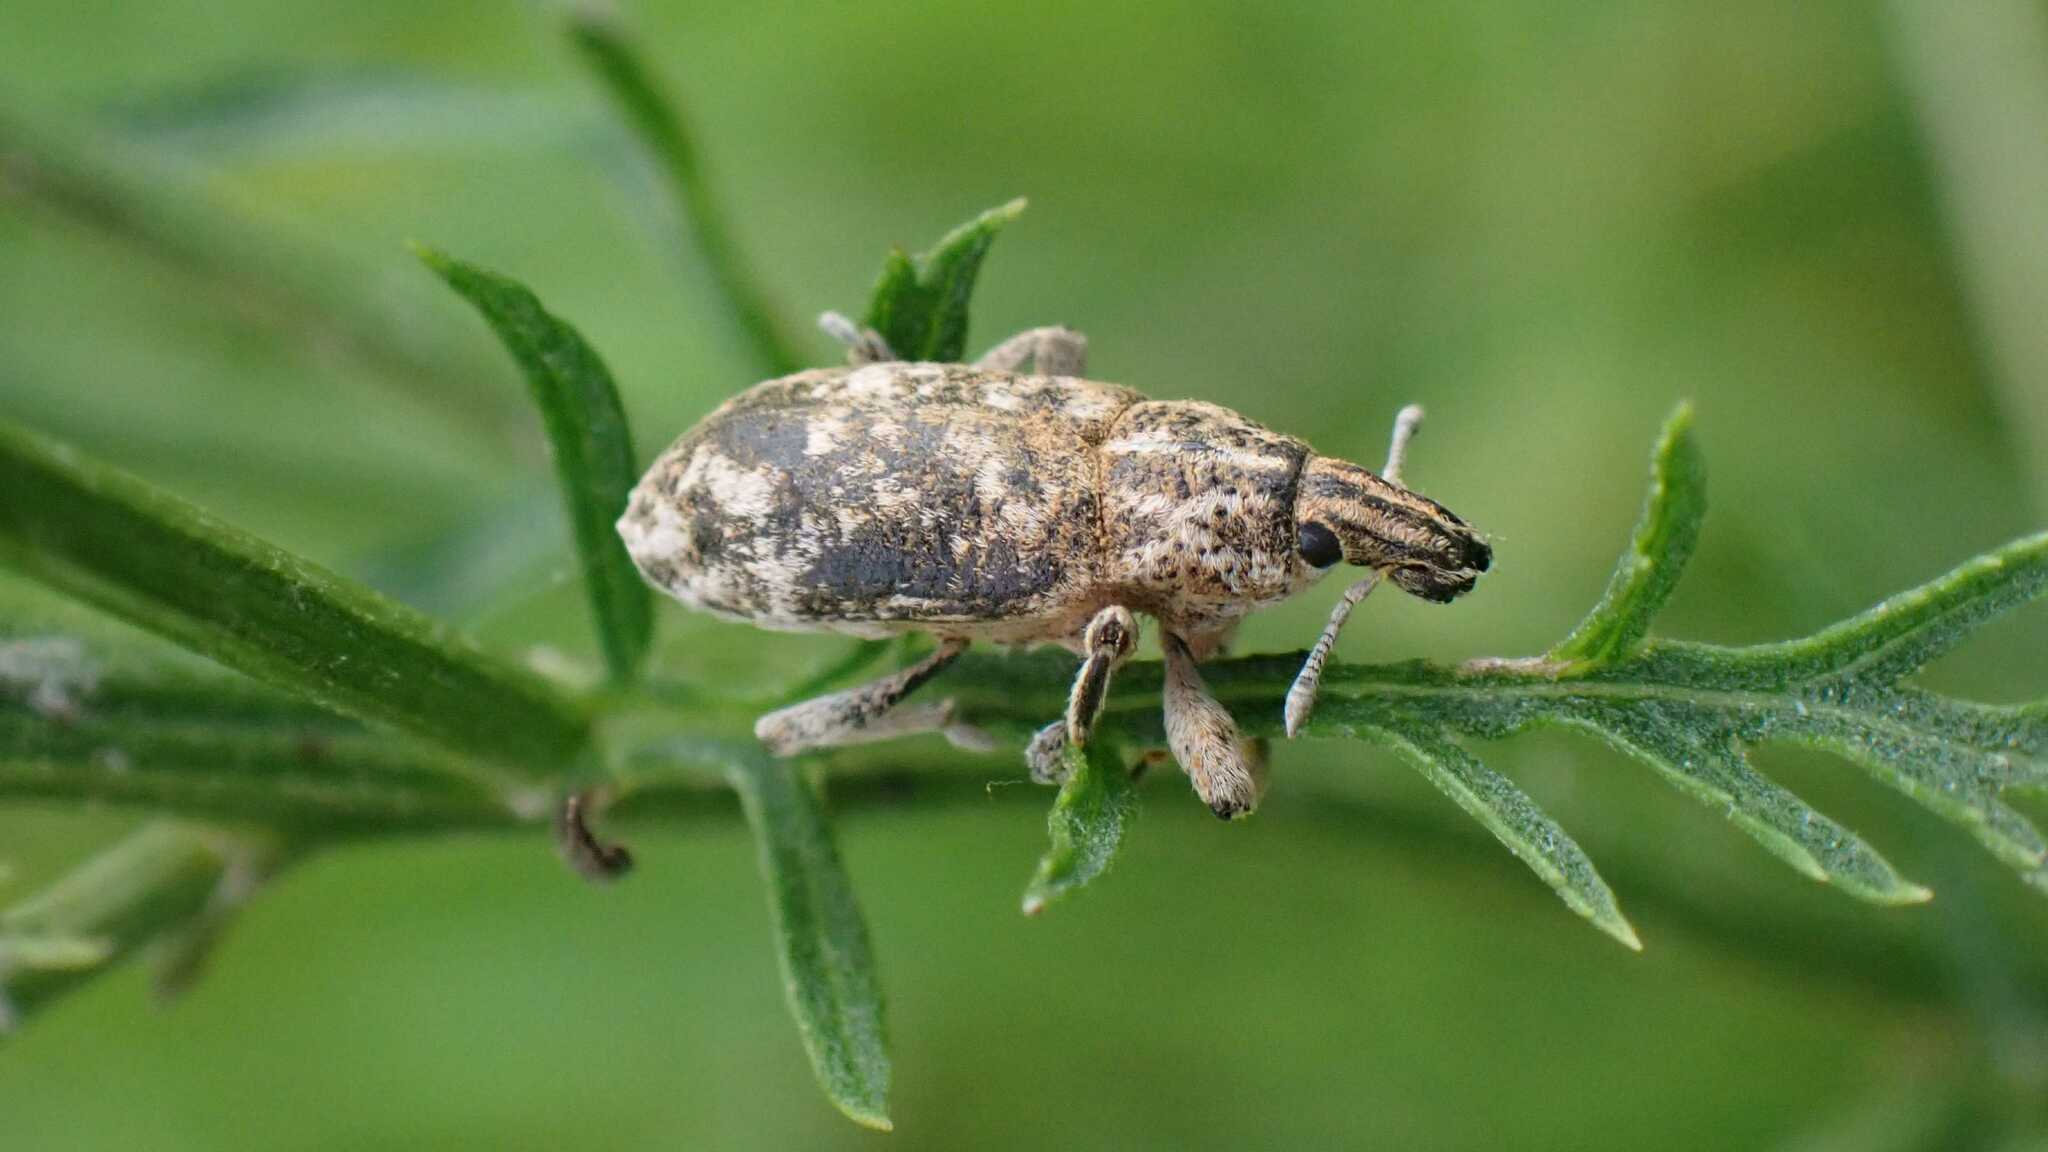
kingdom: Animalia
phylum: Arthropoda
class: Insecta
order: Coleoptera
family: Curculionidae
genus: Cyphocleonus
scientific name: Cyphocleonus dealbatus
